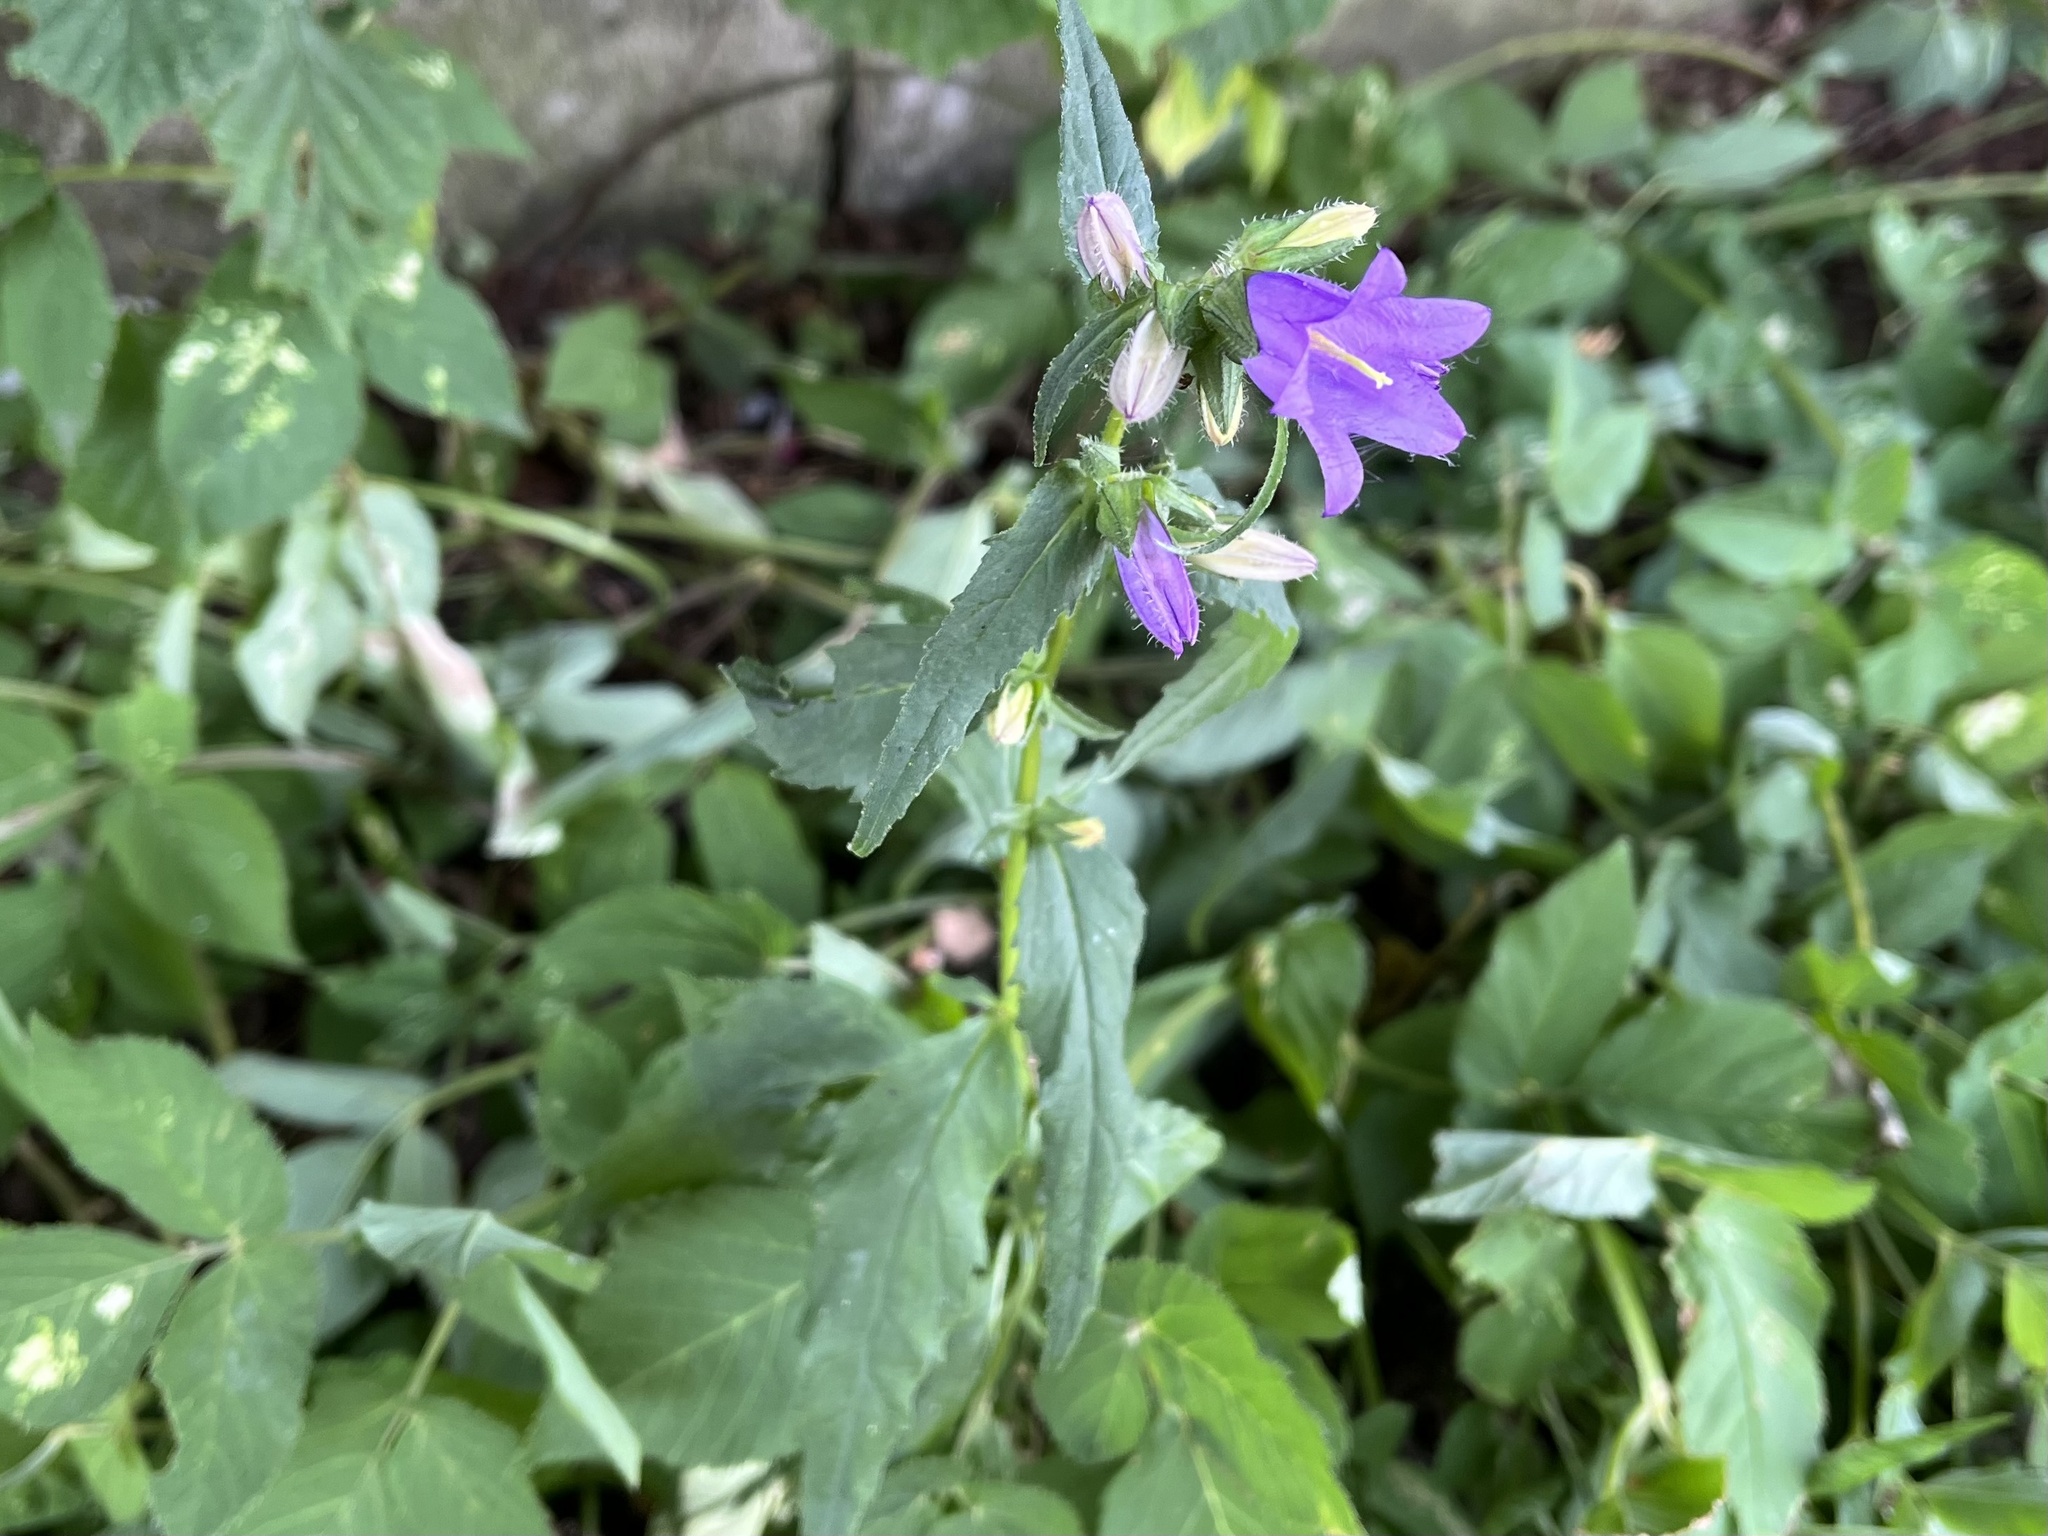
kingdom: Plantae
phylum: Tracheophyta
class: Magnoliopsida
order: Asterales
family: Campanulaceae
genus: Campanula
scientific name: Campanula trachelium
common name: Nettle-leaved bellflower
